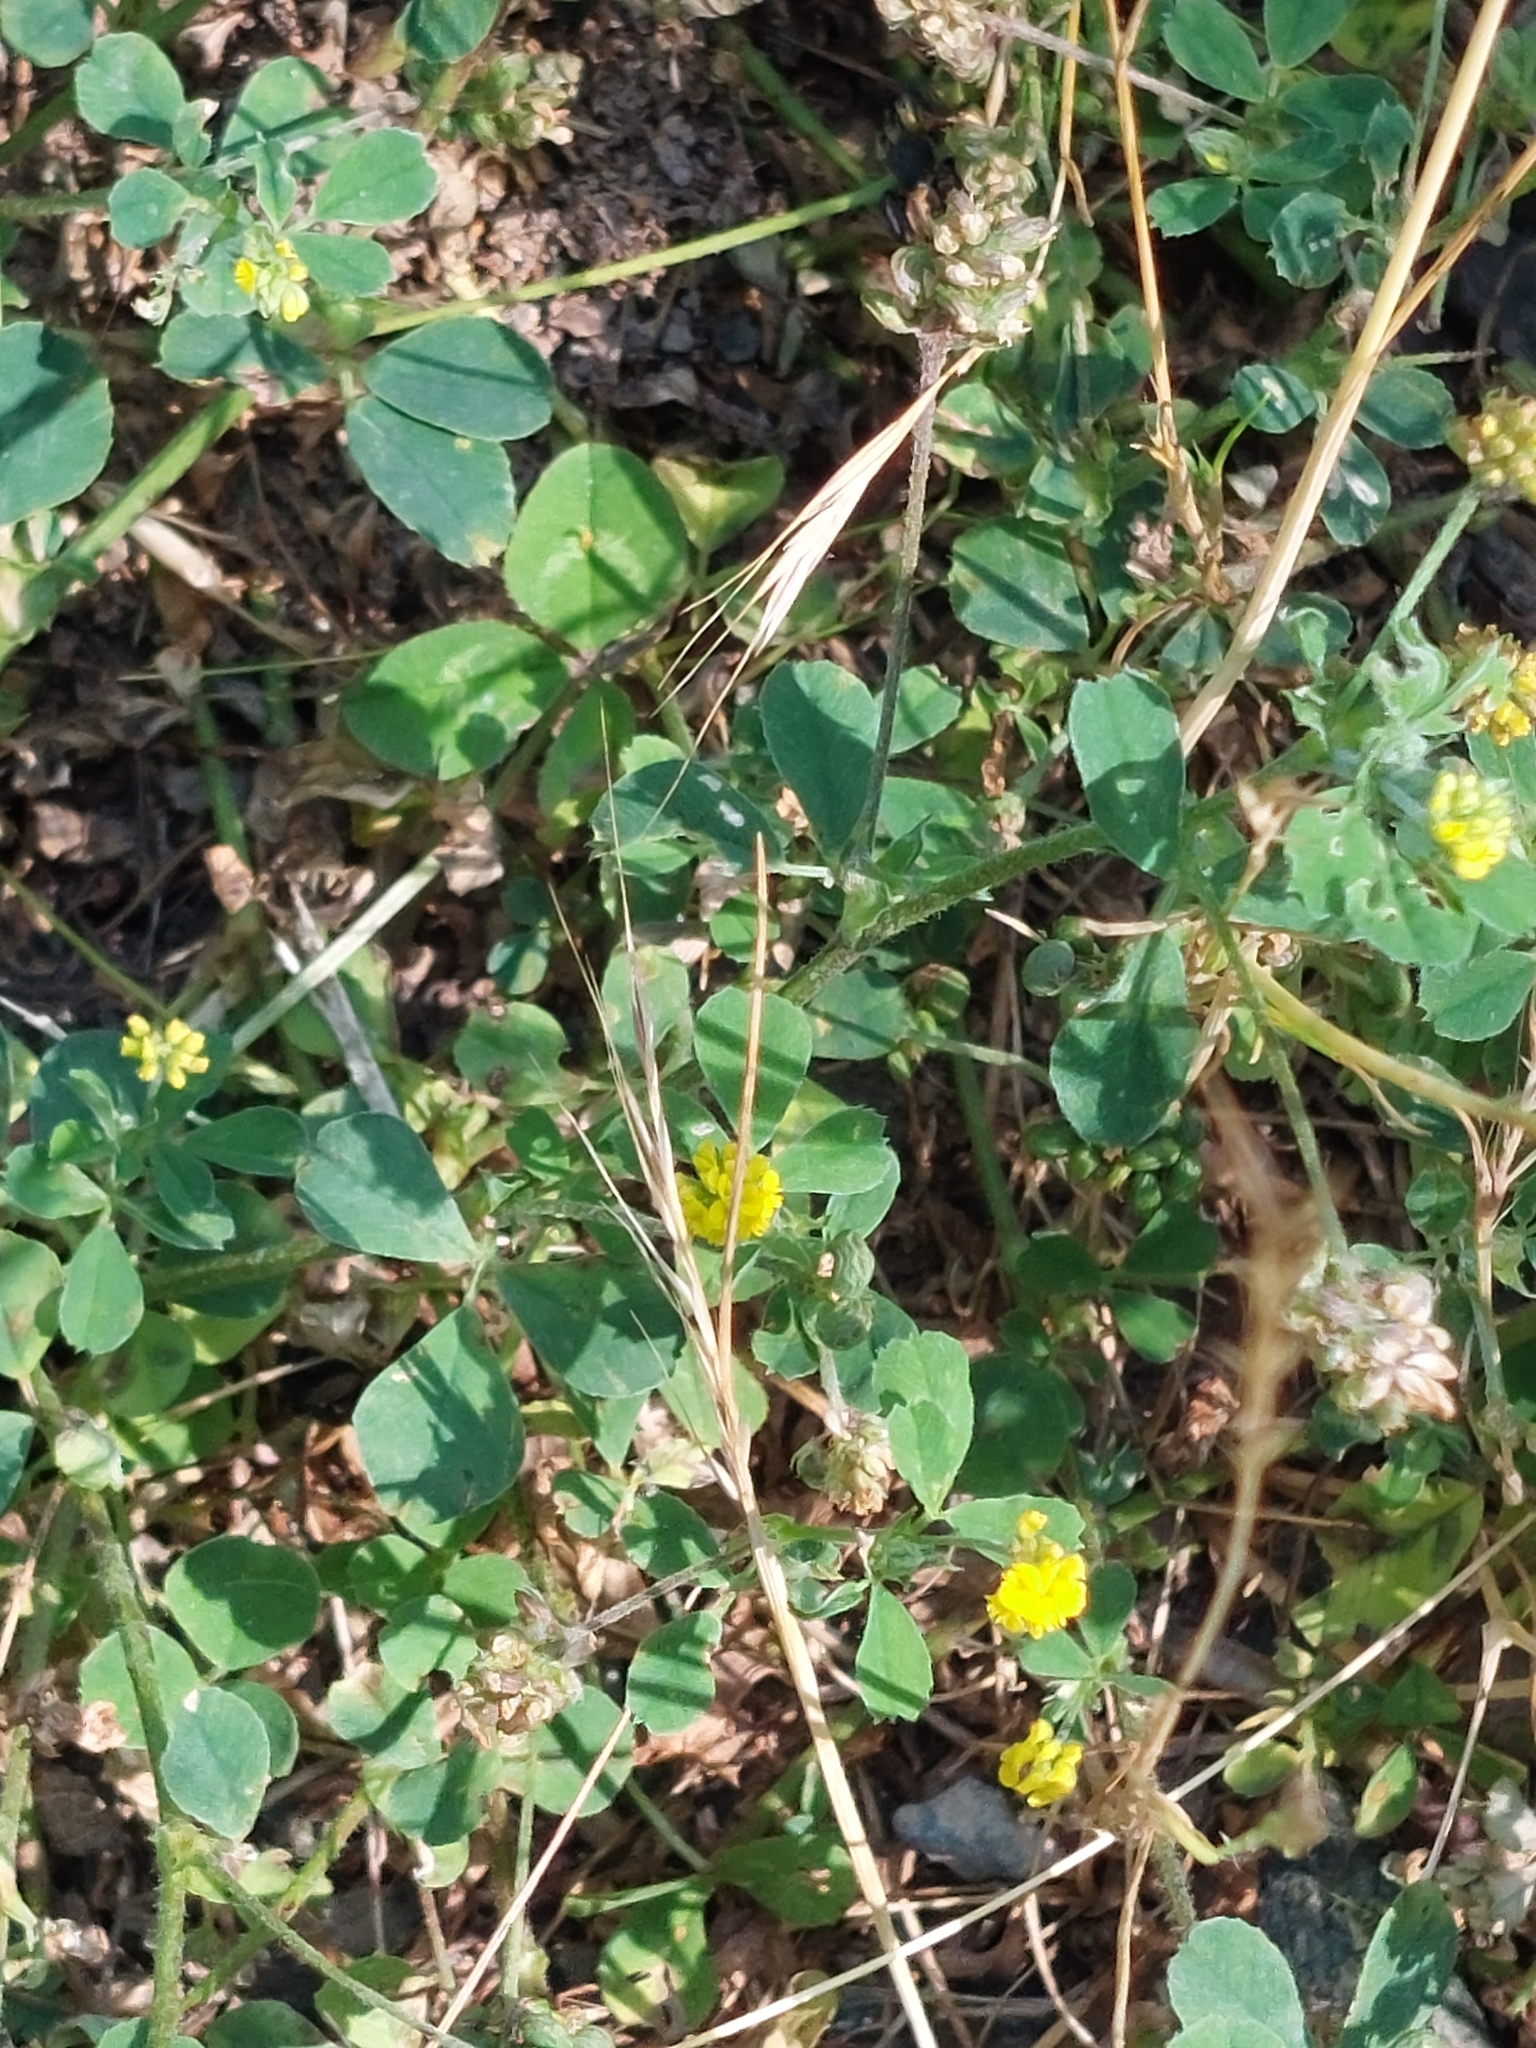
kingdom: Plantae
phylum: Tracheophyta
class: Magnoliopsida
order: Fabales
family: Fabaceae
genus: Medicago
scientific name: Medicago lupulina
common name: Black medick
